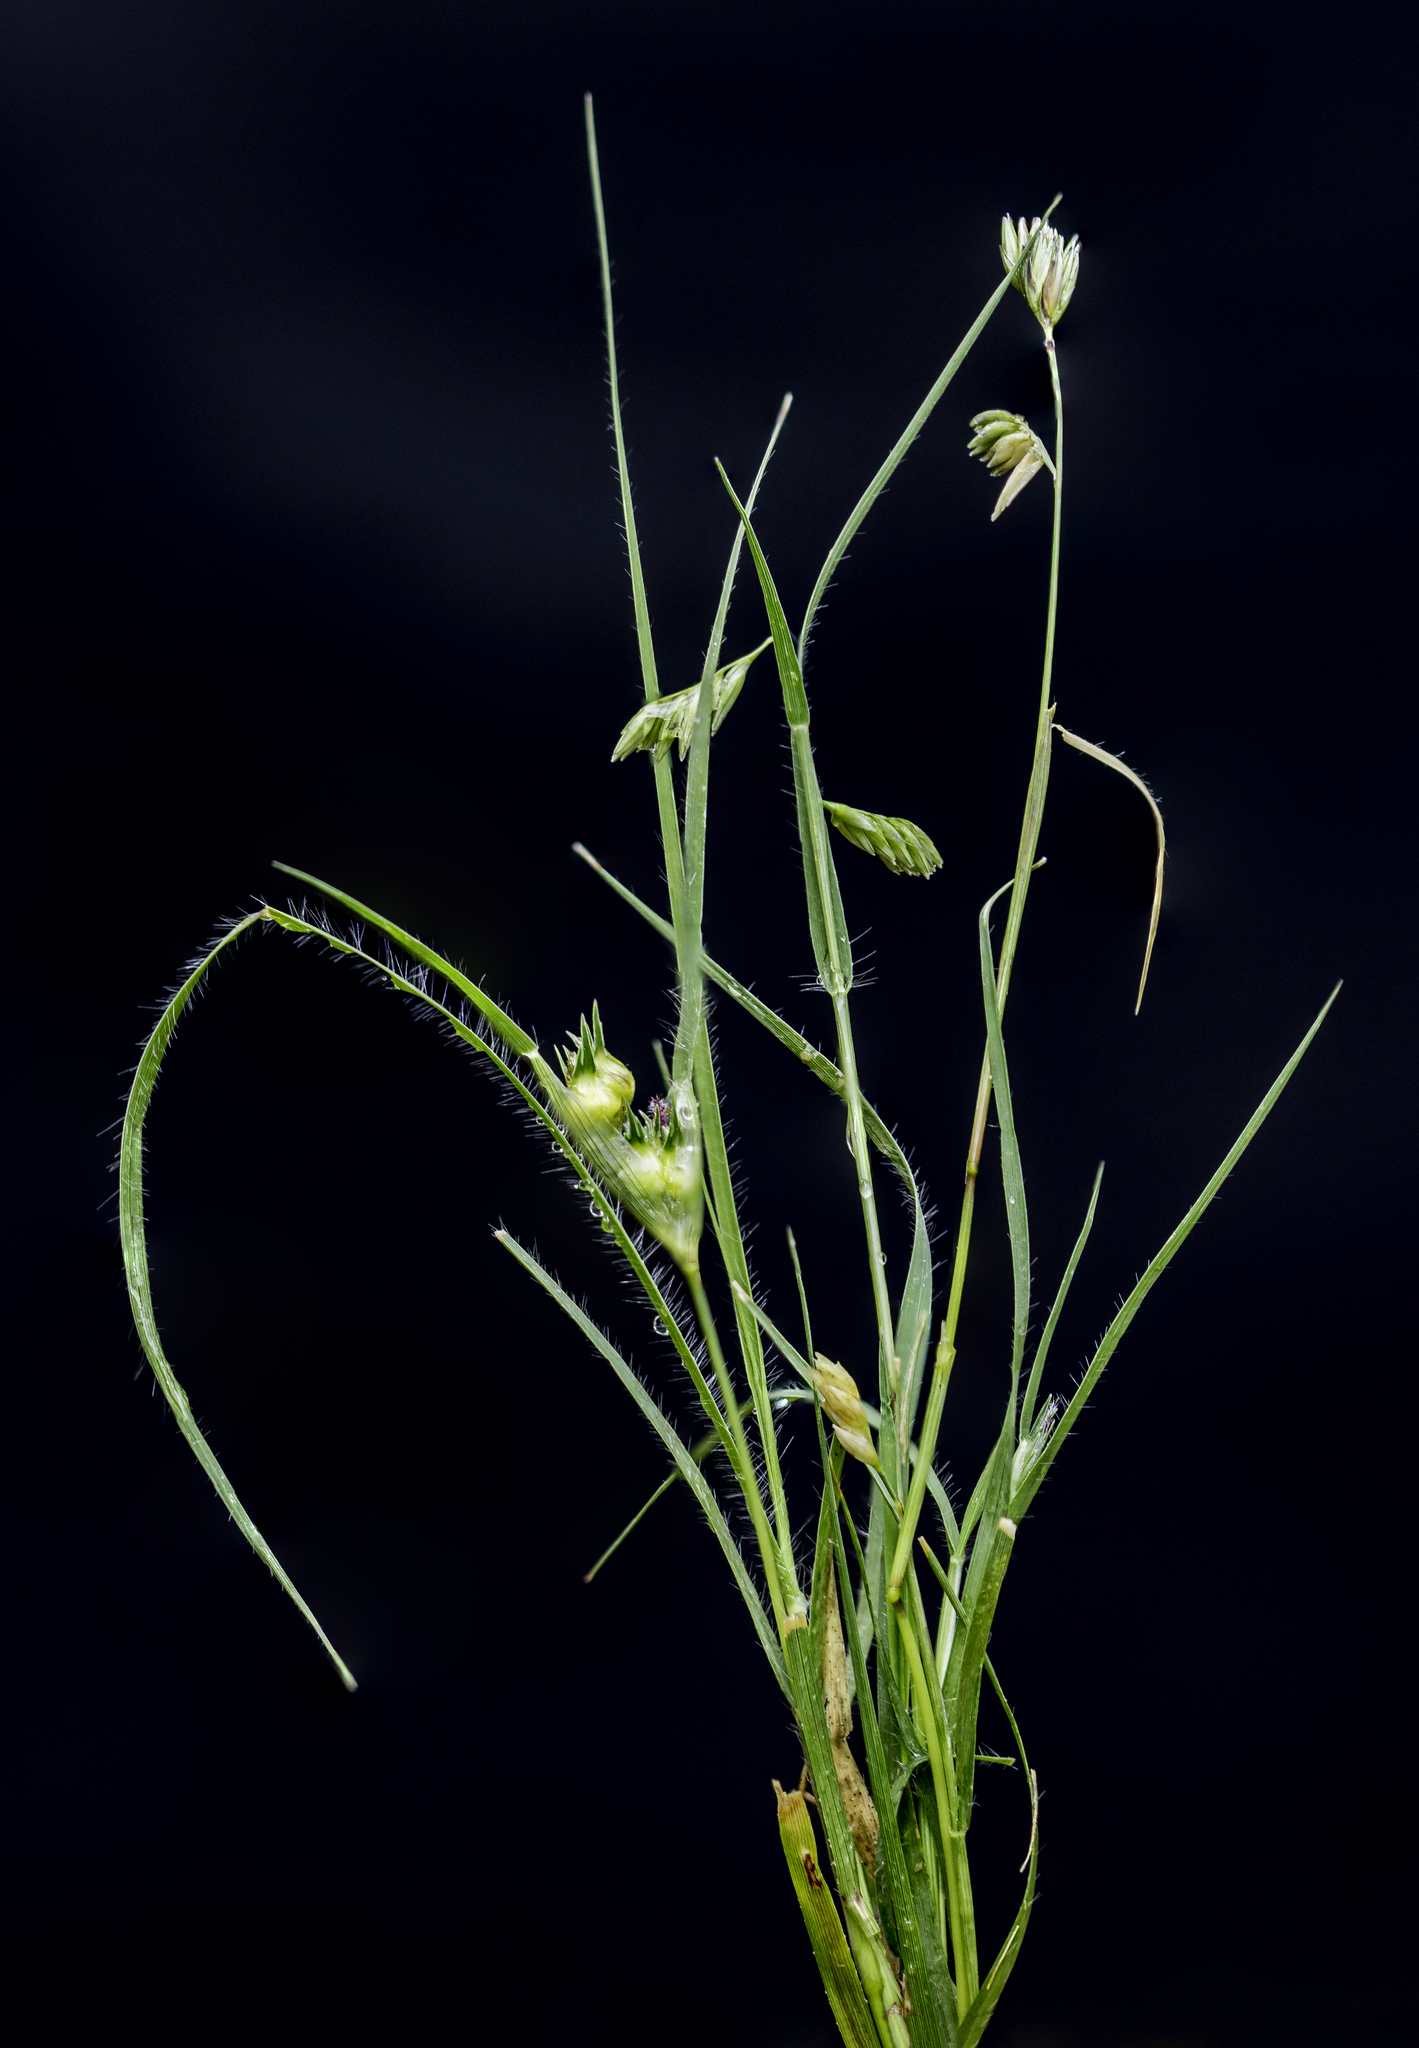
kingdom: Plantae
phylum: Tracheophyta
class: Liliopsida
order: Poales
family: Poaceae
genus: Bouteloua
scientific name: Bouteloua dactyloides
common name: Buffalo grass
